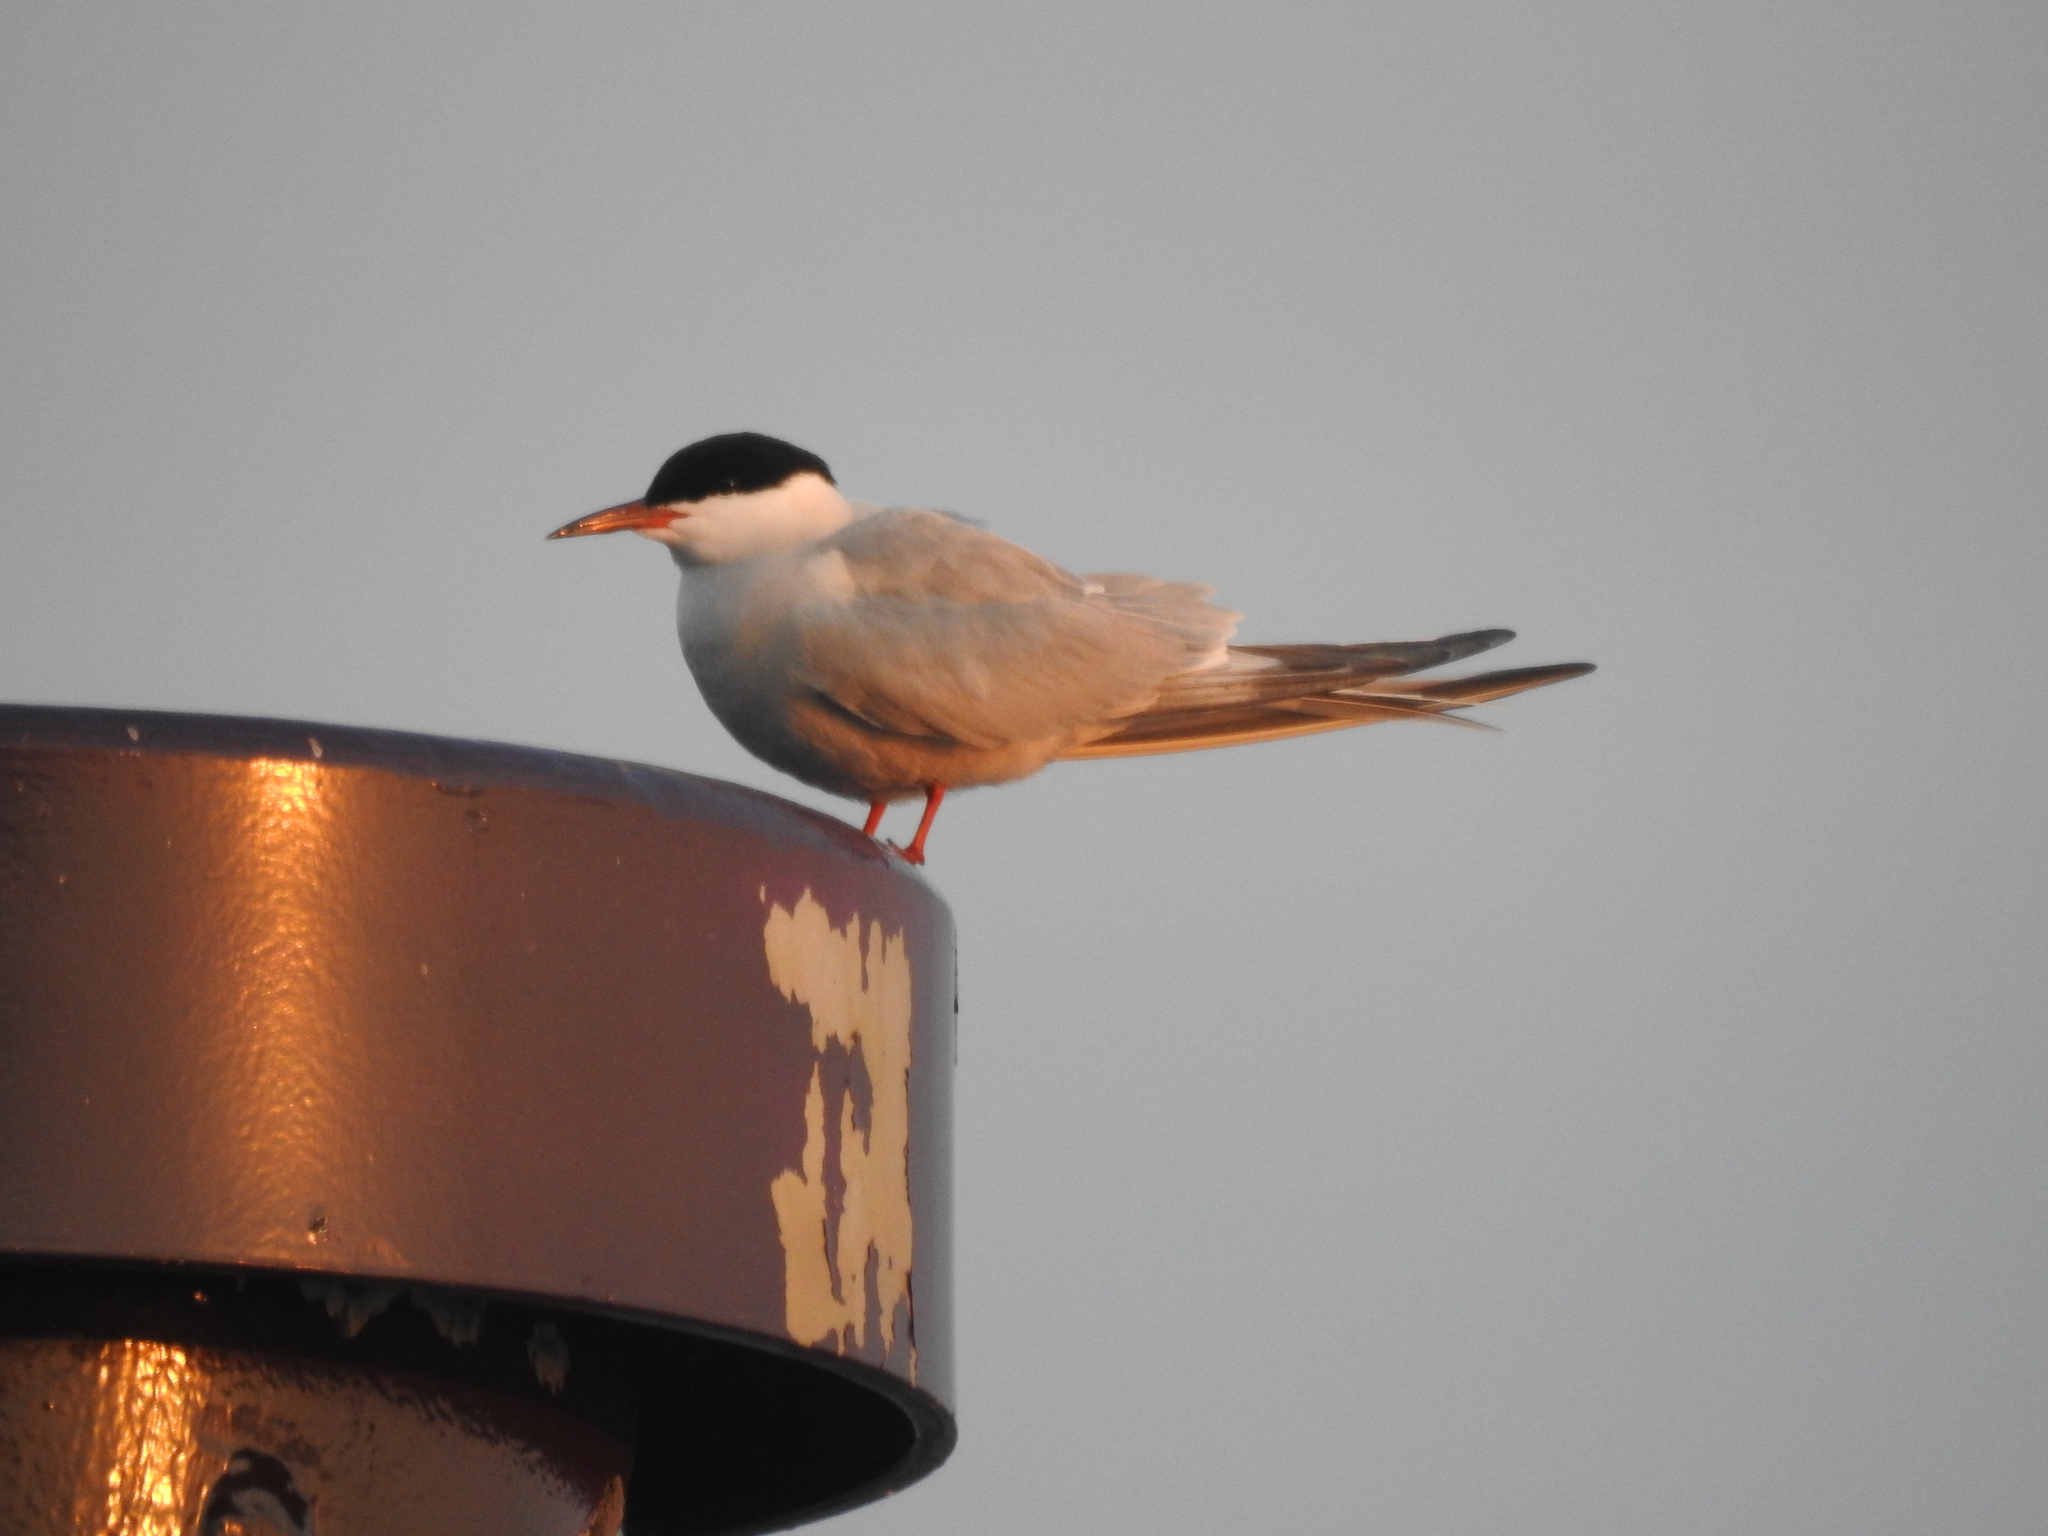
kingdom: Animalia
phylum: Chordata
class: Aves
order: Charadriiformes
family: Laridae
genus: Sterna
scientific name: Sterna hirundo
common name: Common tern
